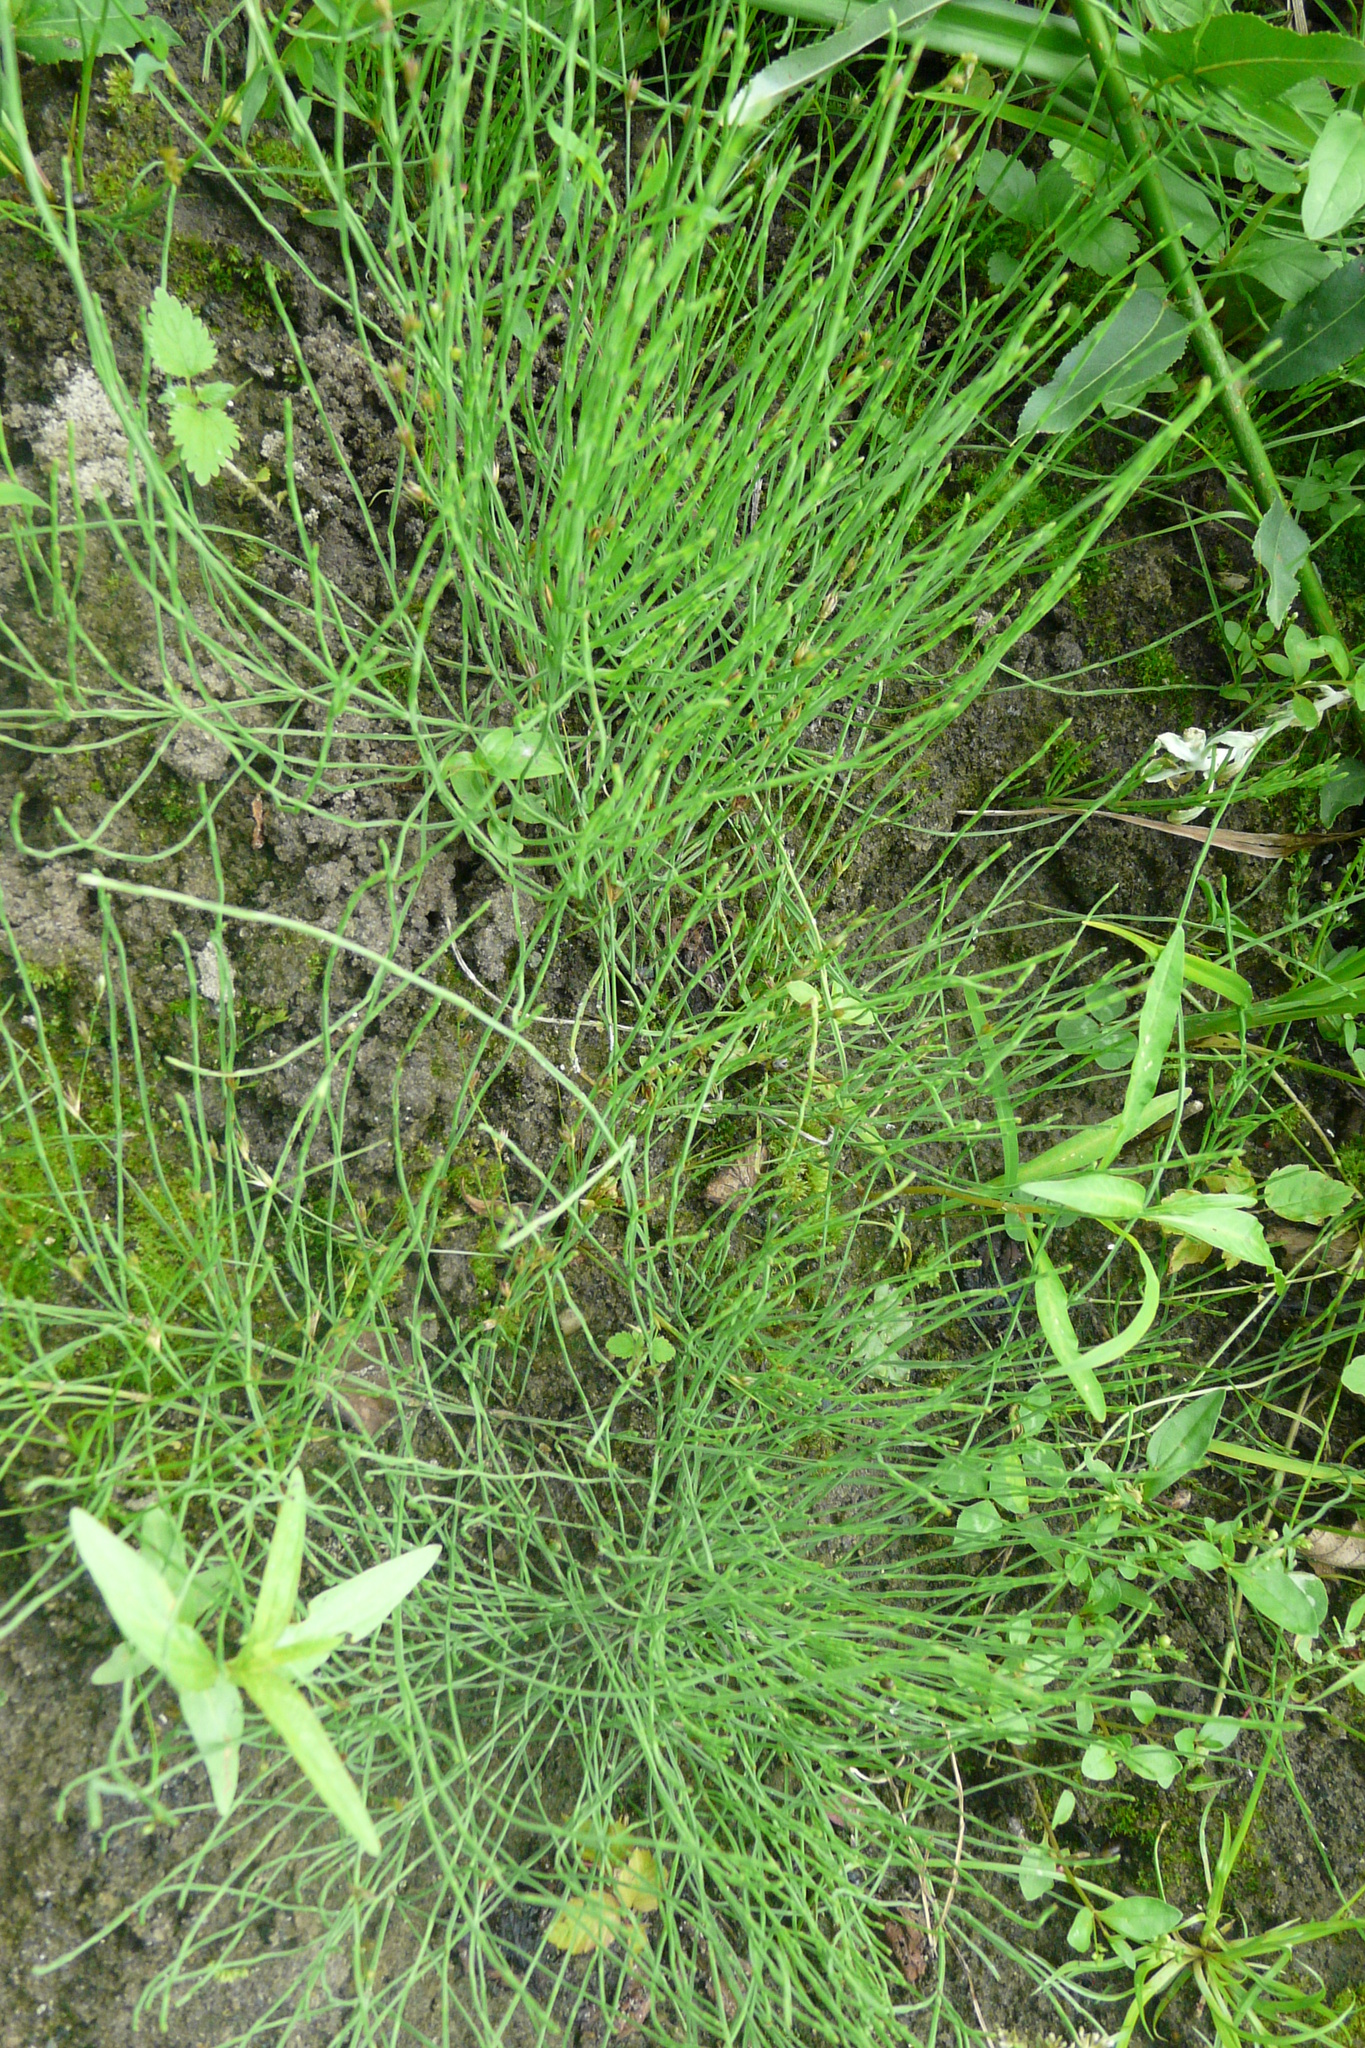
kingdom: Plantae
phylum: Tracheophyta
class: Polypodiopsida
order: Equisetales
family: Equisetaceae
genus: Equisetum
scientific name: Equisetum arvense
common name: Field horsetail
